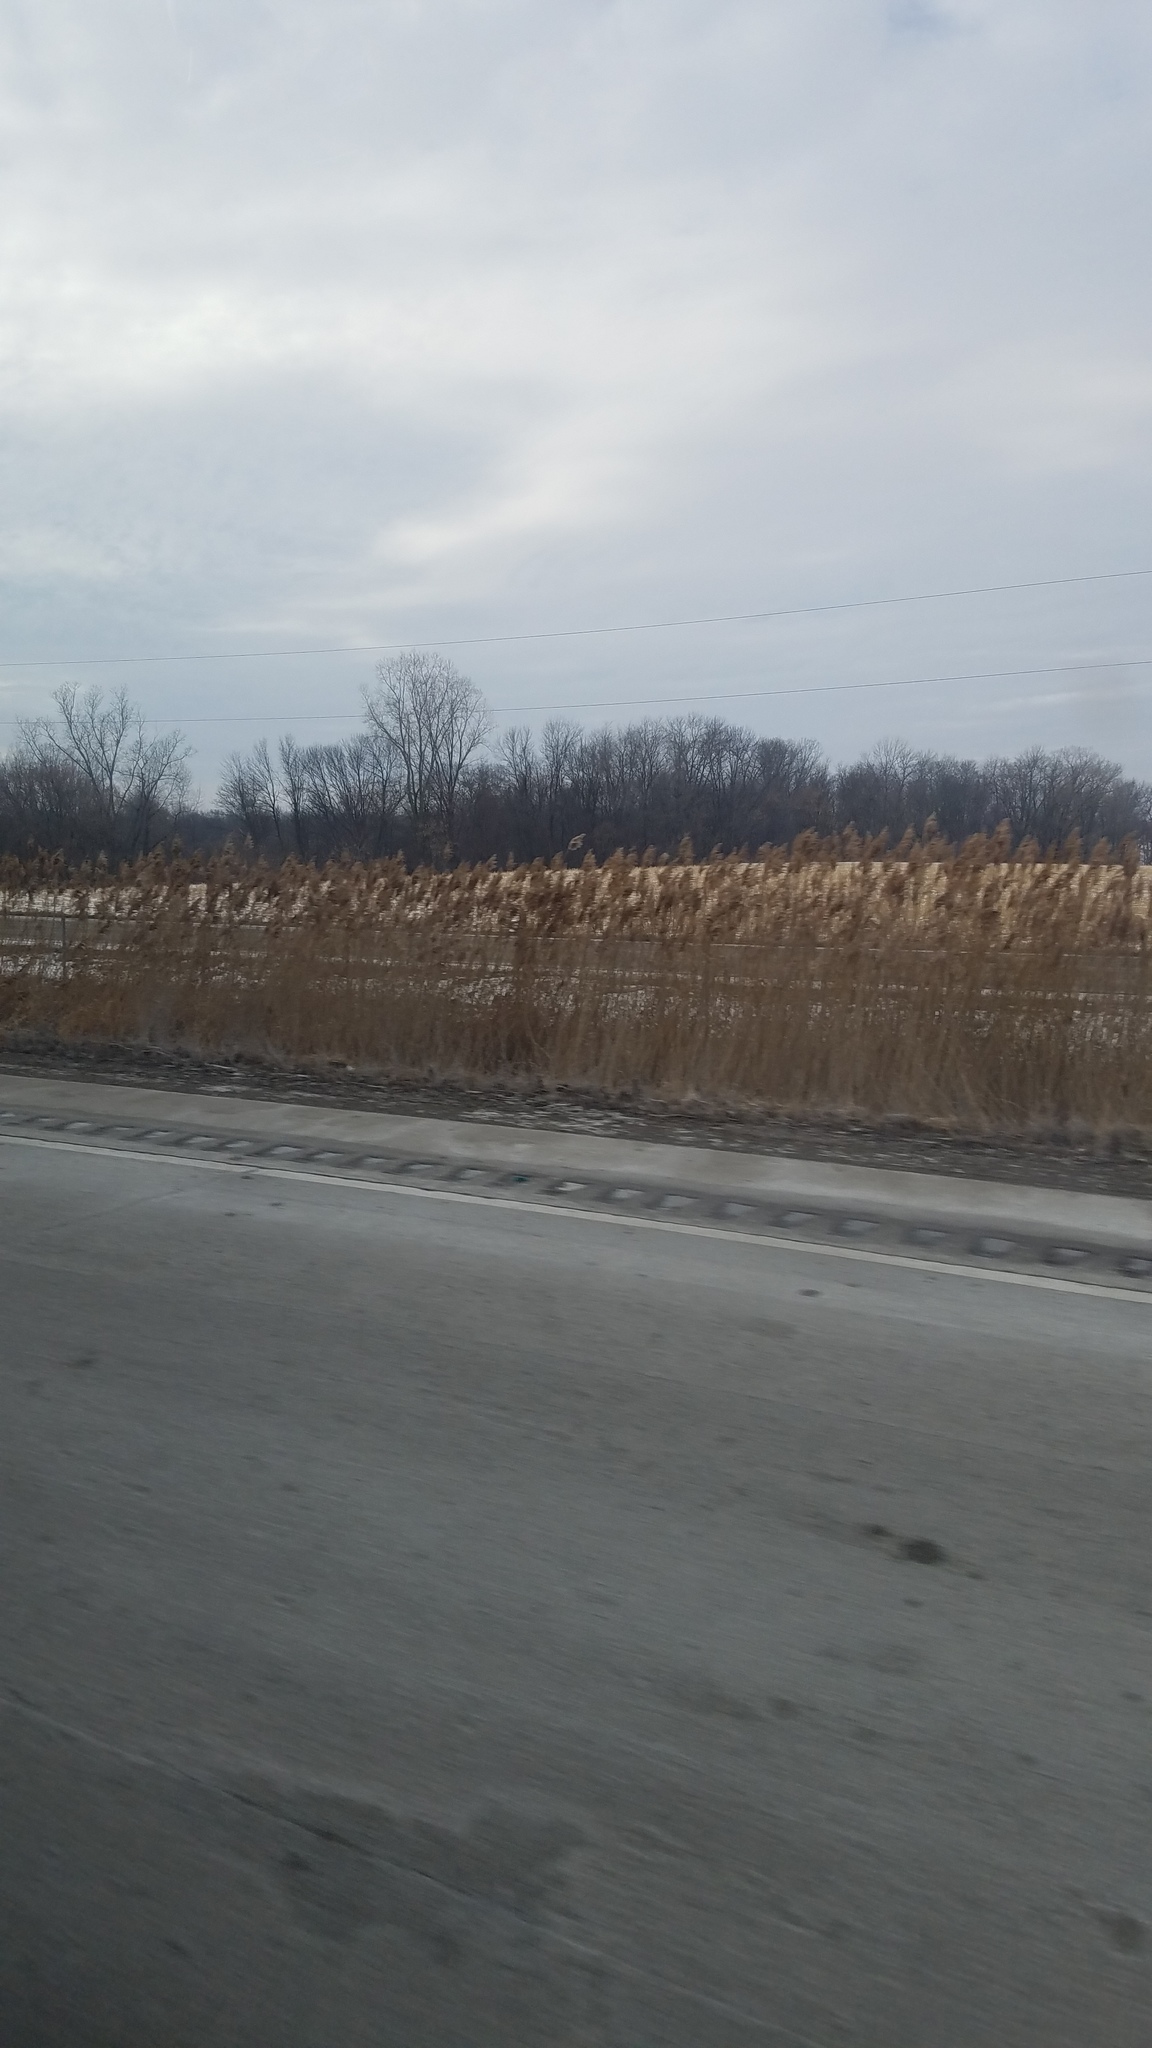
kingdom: Plantae
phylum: Tracheophyta
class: Liliopsida
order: Poales
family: Poaceae
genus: Phragmites
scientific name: Phragmites australis
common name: Common reed
